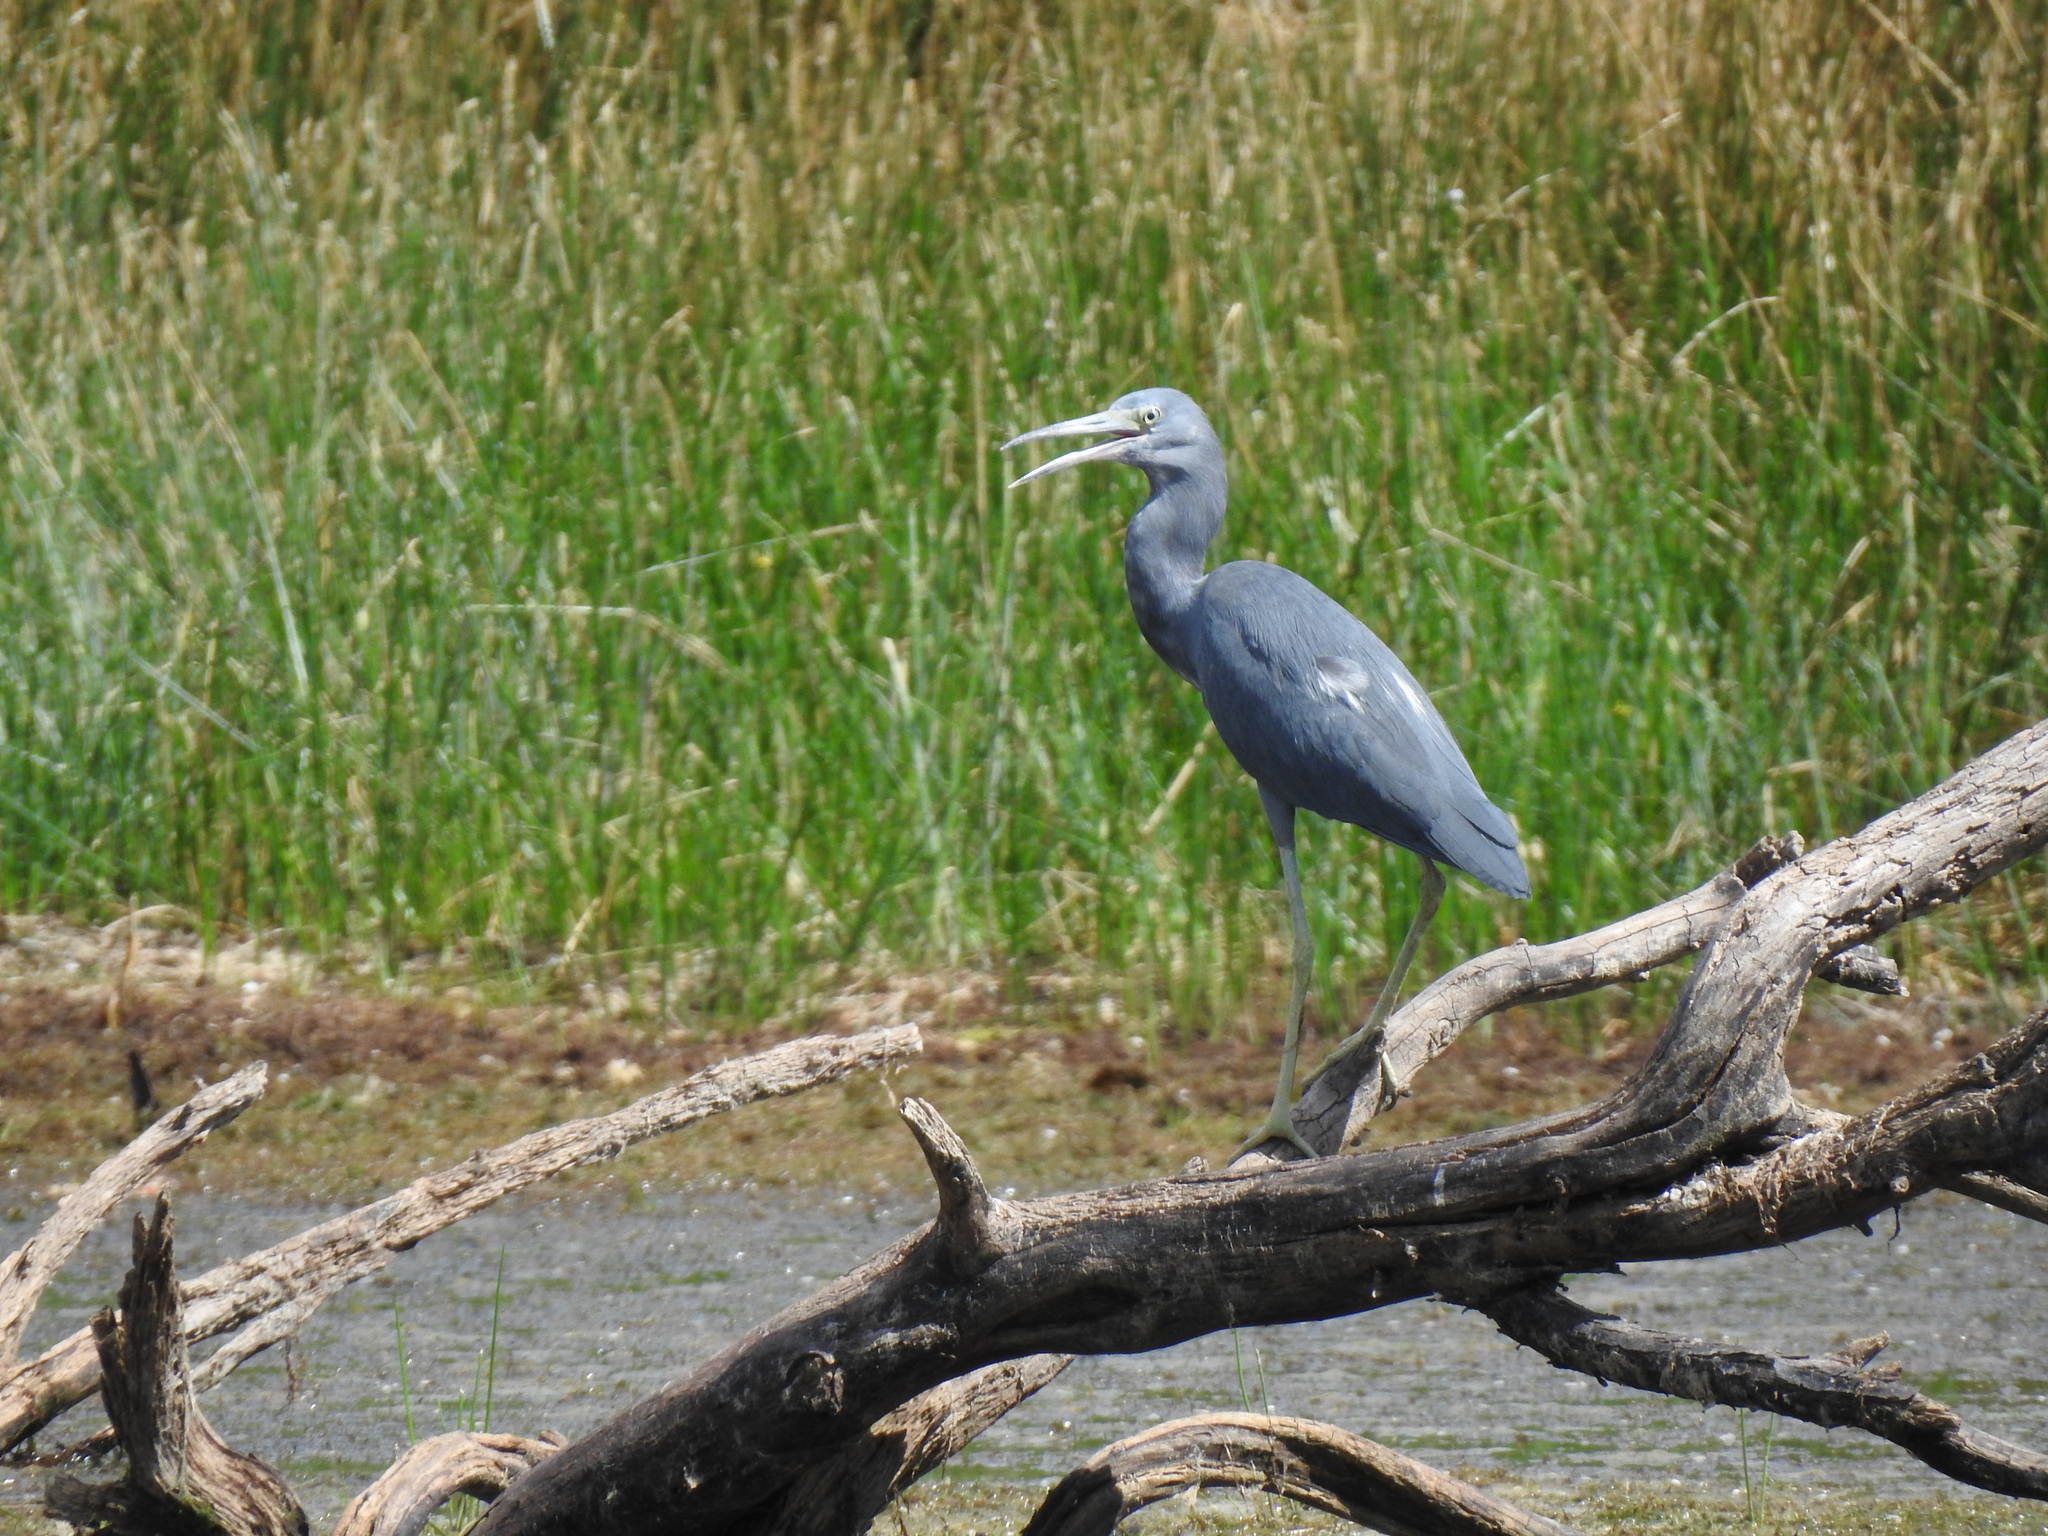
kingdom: Animalia
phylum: Chordata
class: Aves
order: Pelecaniformes
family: Ardeidae
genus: Egretta
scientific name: Egretta caerulea
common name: Little blue heron
